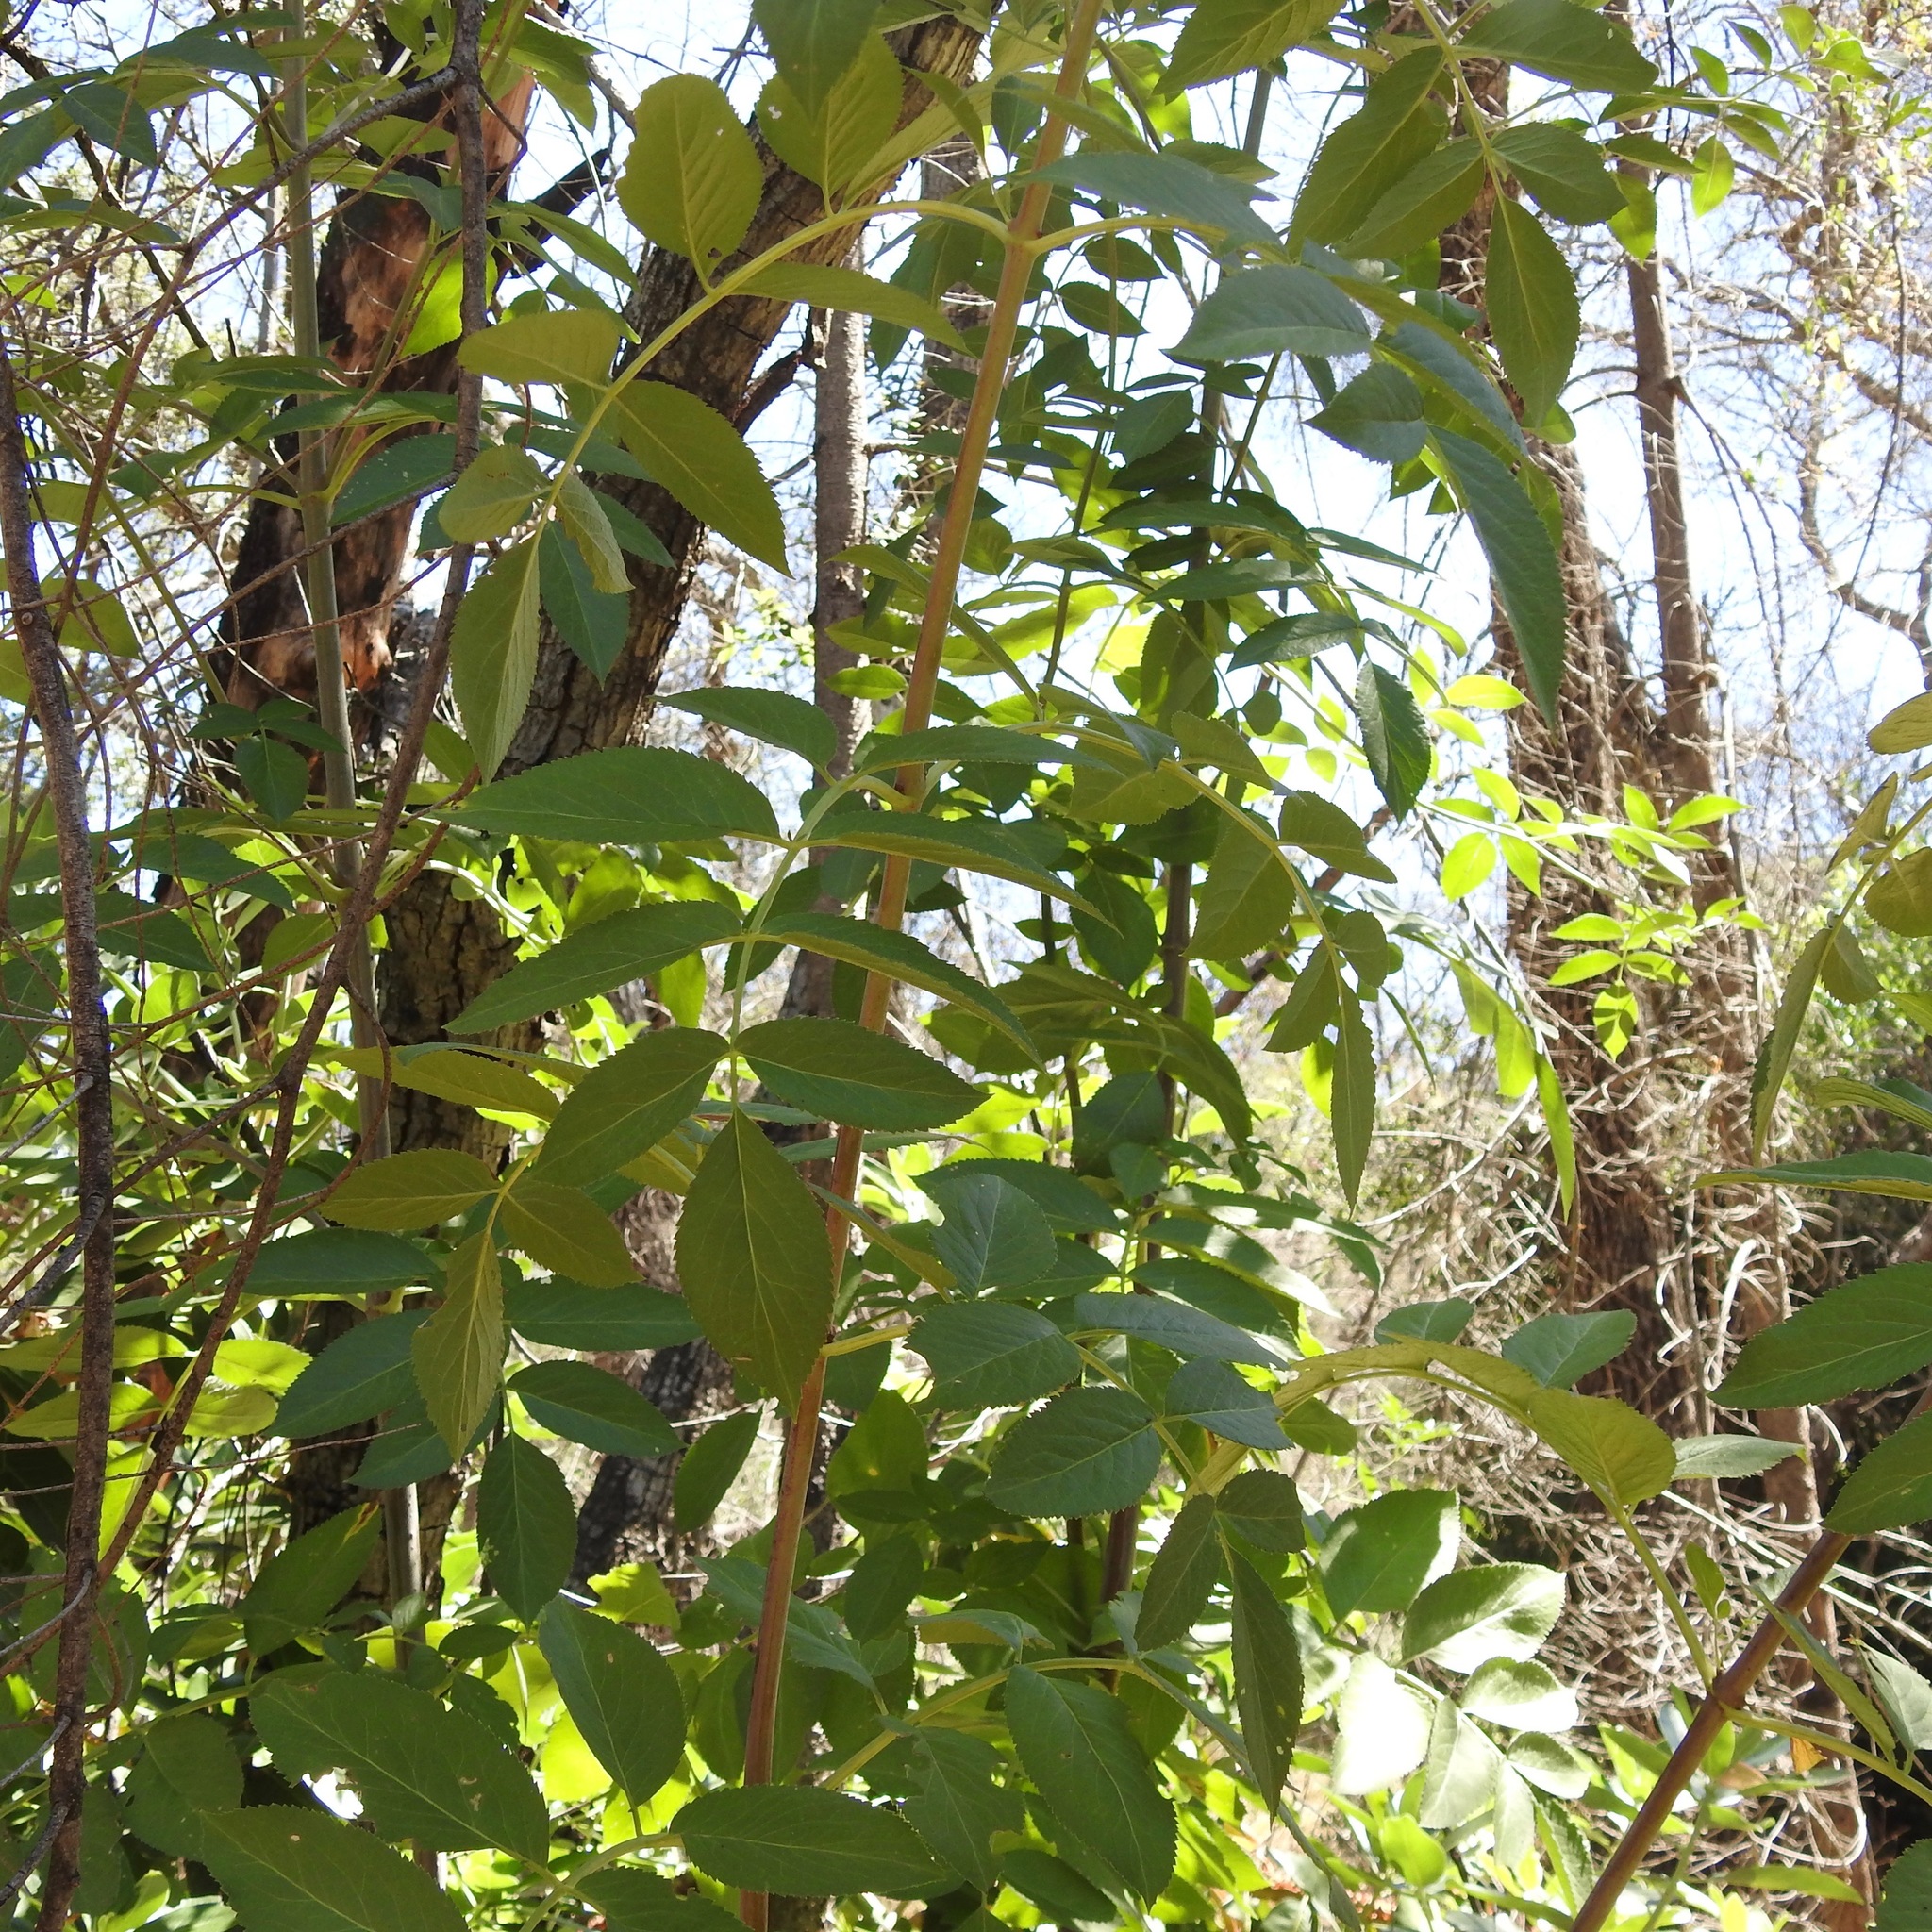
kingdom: Plantae
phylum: Tracheophyta
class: Magnoliopsida
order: Dipsacales
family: Viburnaceae
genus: Sambucus
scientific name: Sambucus cerulea
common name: Blue elder
